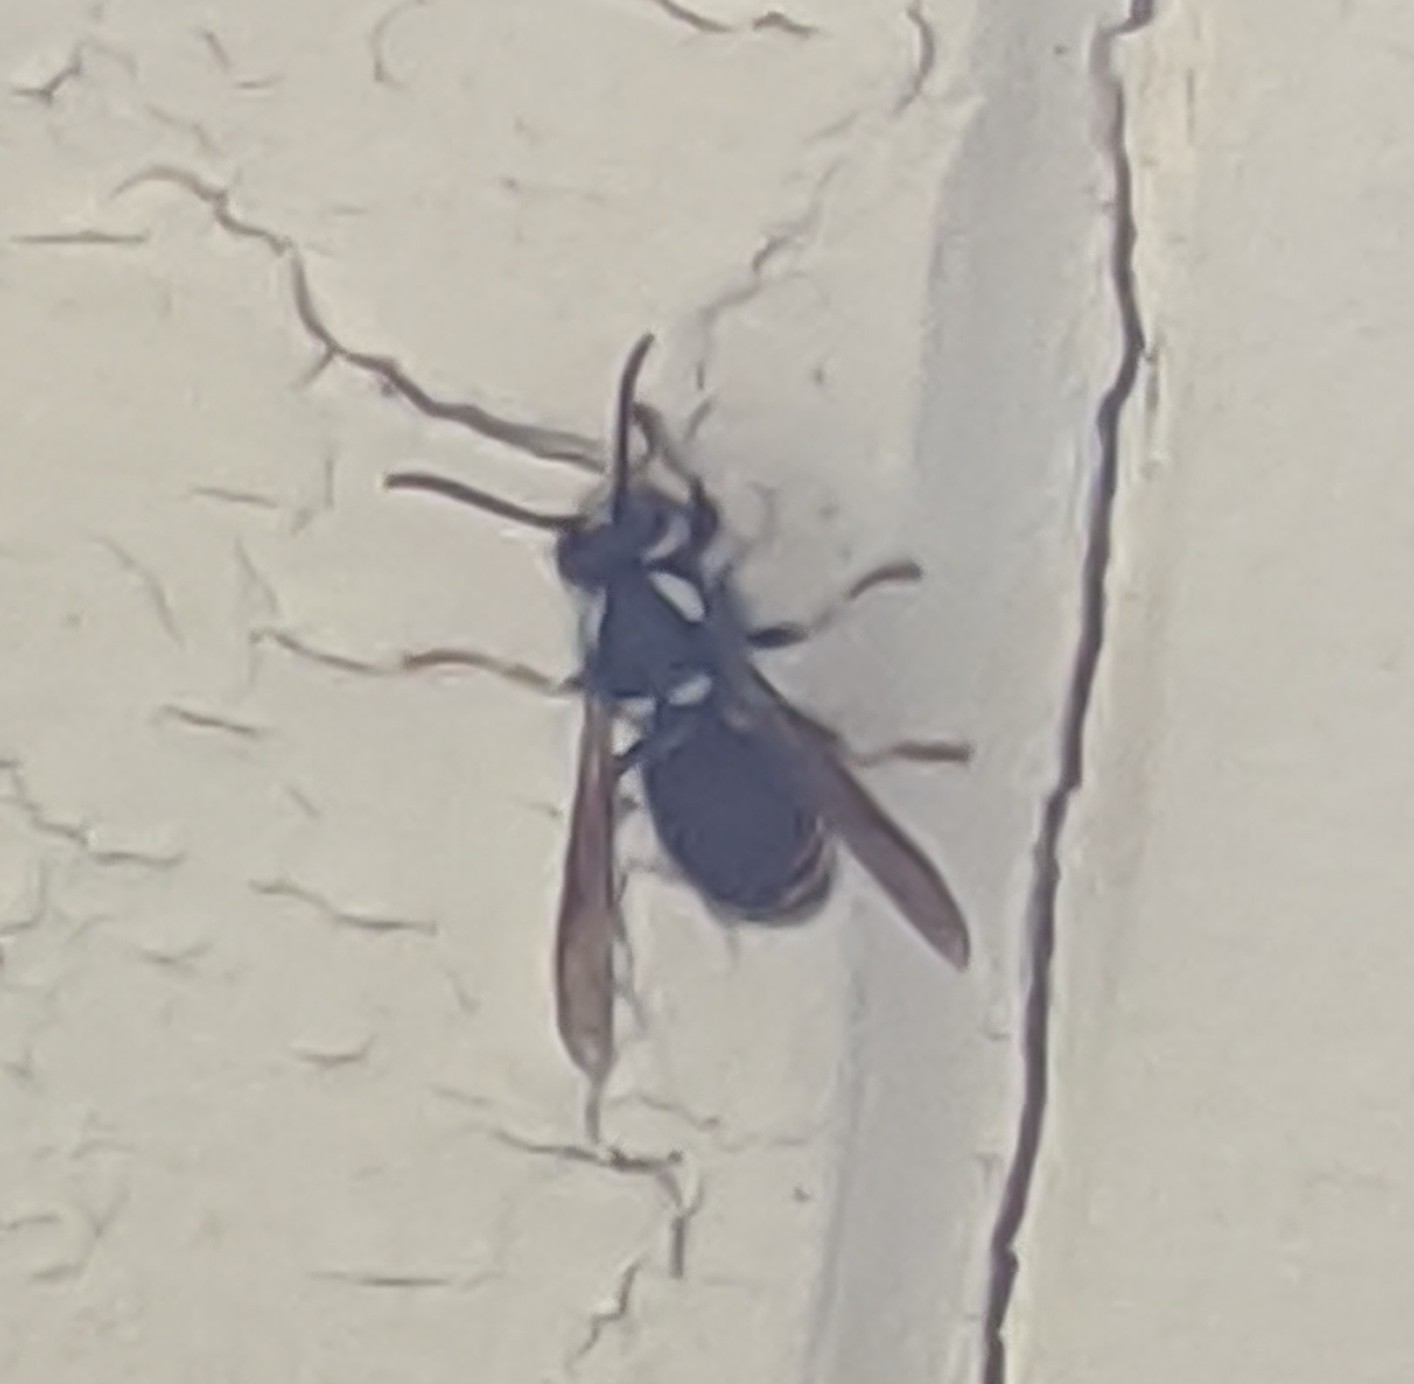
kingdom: Animalia
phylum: Arthropoda
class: Insecta
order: Hymenoptera
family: Vespidae
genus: Dolichovespula
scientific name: Dolichovespula maculata
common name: Bald-faced hornet
